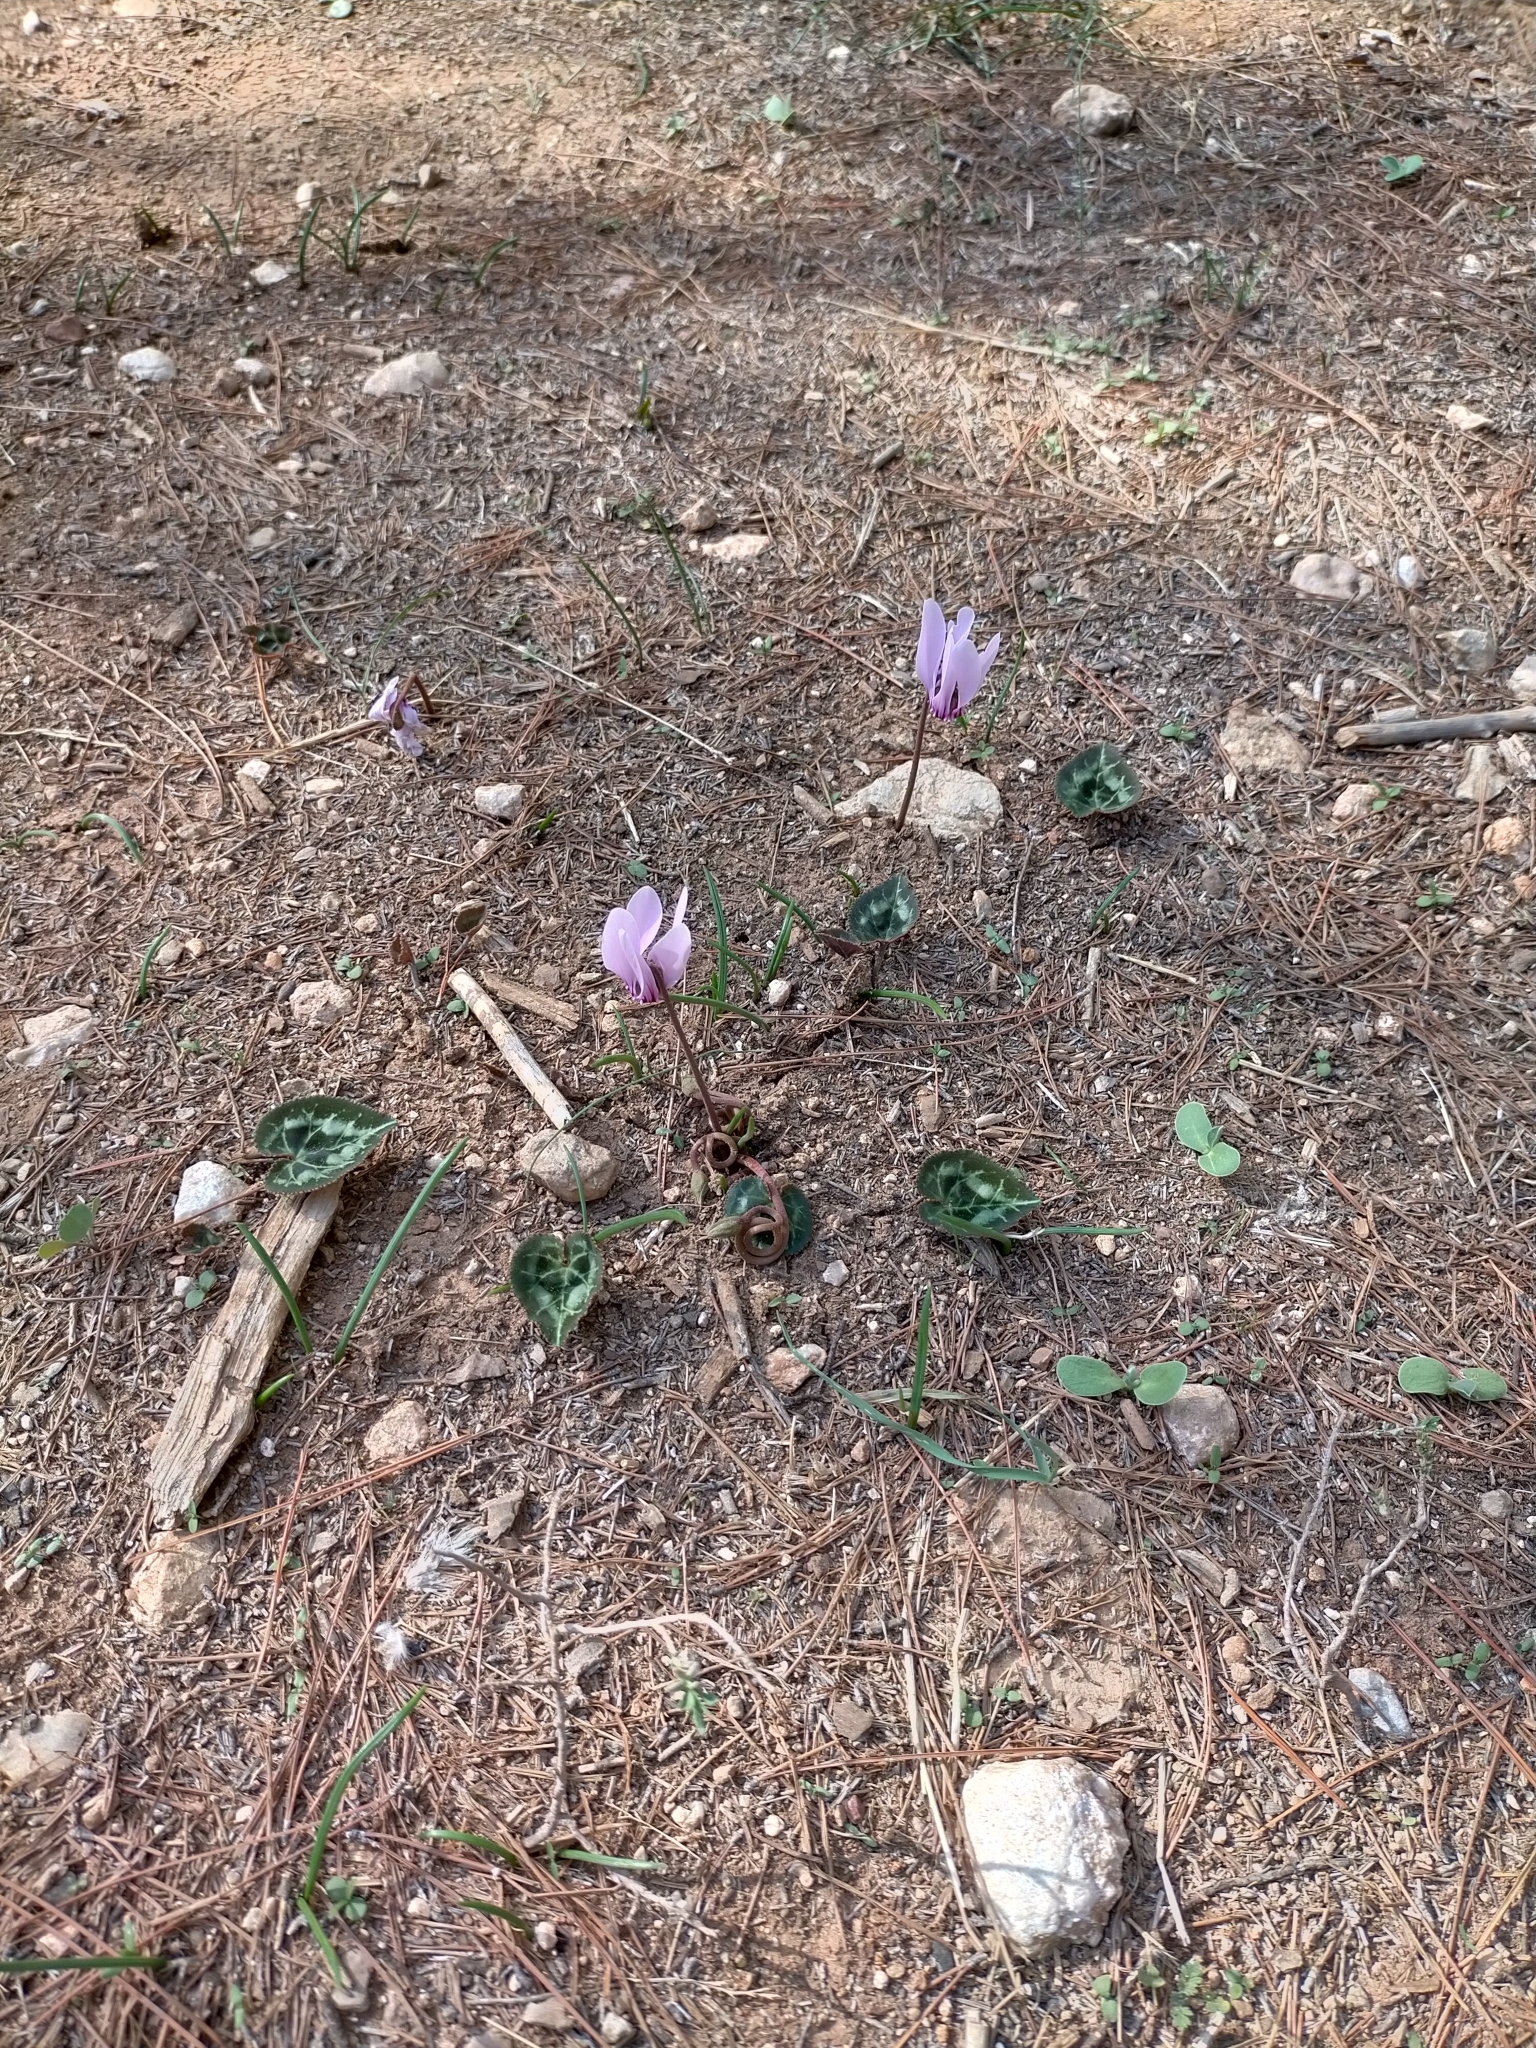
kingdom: Plantae
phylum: Tracheophyta
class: Magnoliopsida
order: Ericales
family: Primulaceae
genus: Cyclamen
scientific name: Cyclamen graecum
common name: Greek cyclamen
